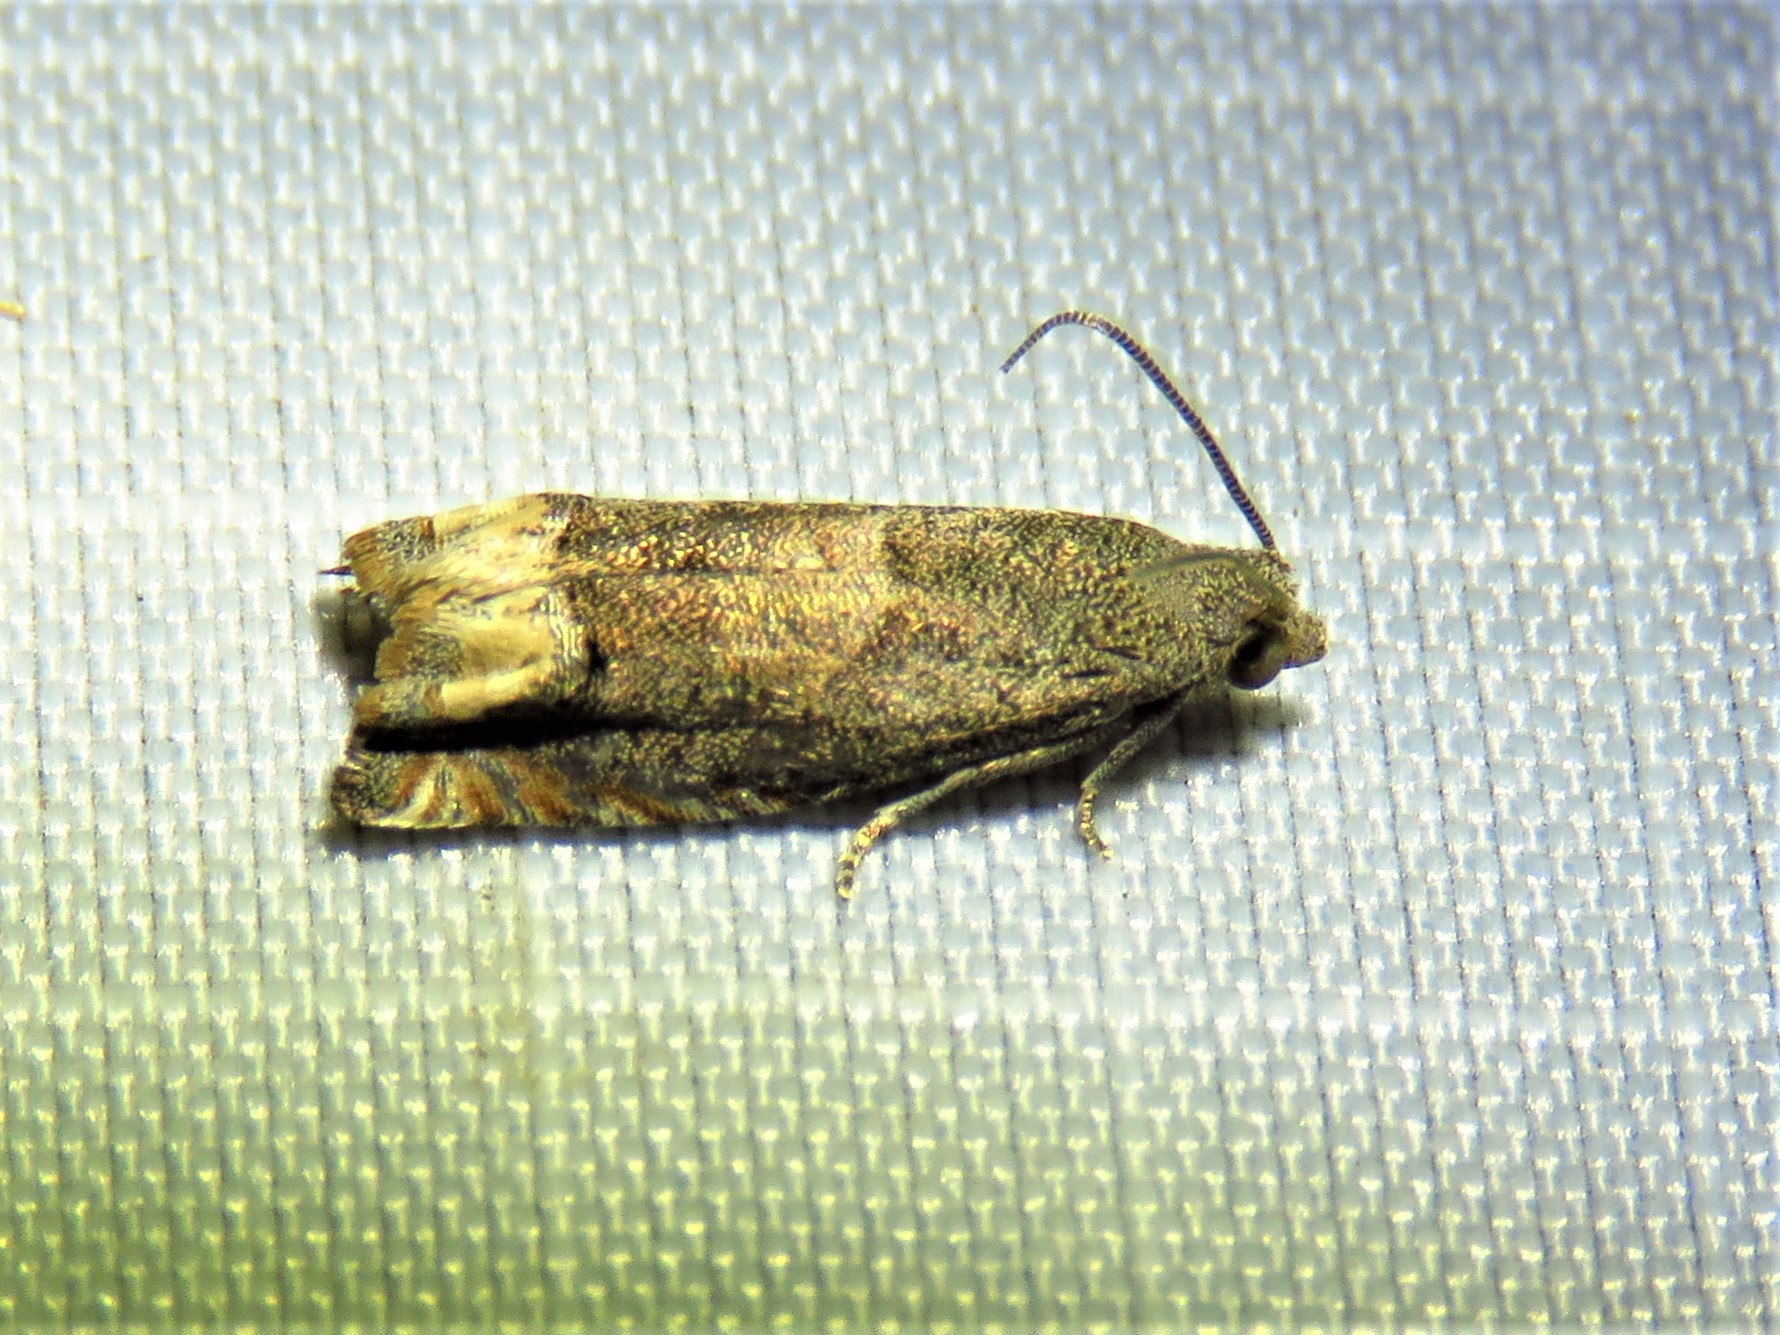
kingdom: Animalia
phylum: Arthropoda
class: Insecta
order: Lepidoptera
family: Tortricidae
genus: Epiblema
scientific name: Epiblema strenuana
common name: Ragweed borer moth
